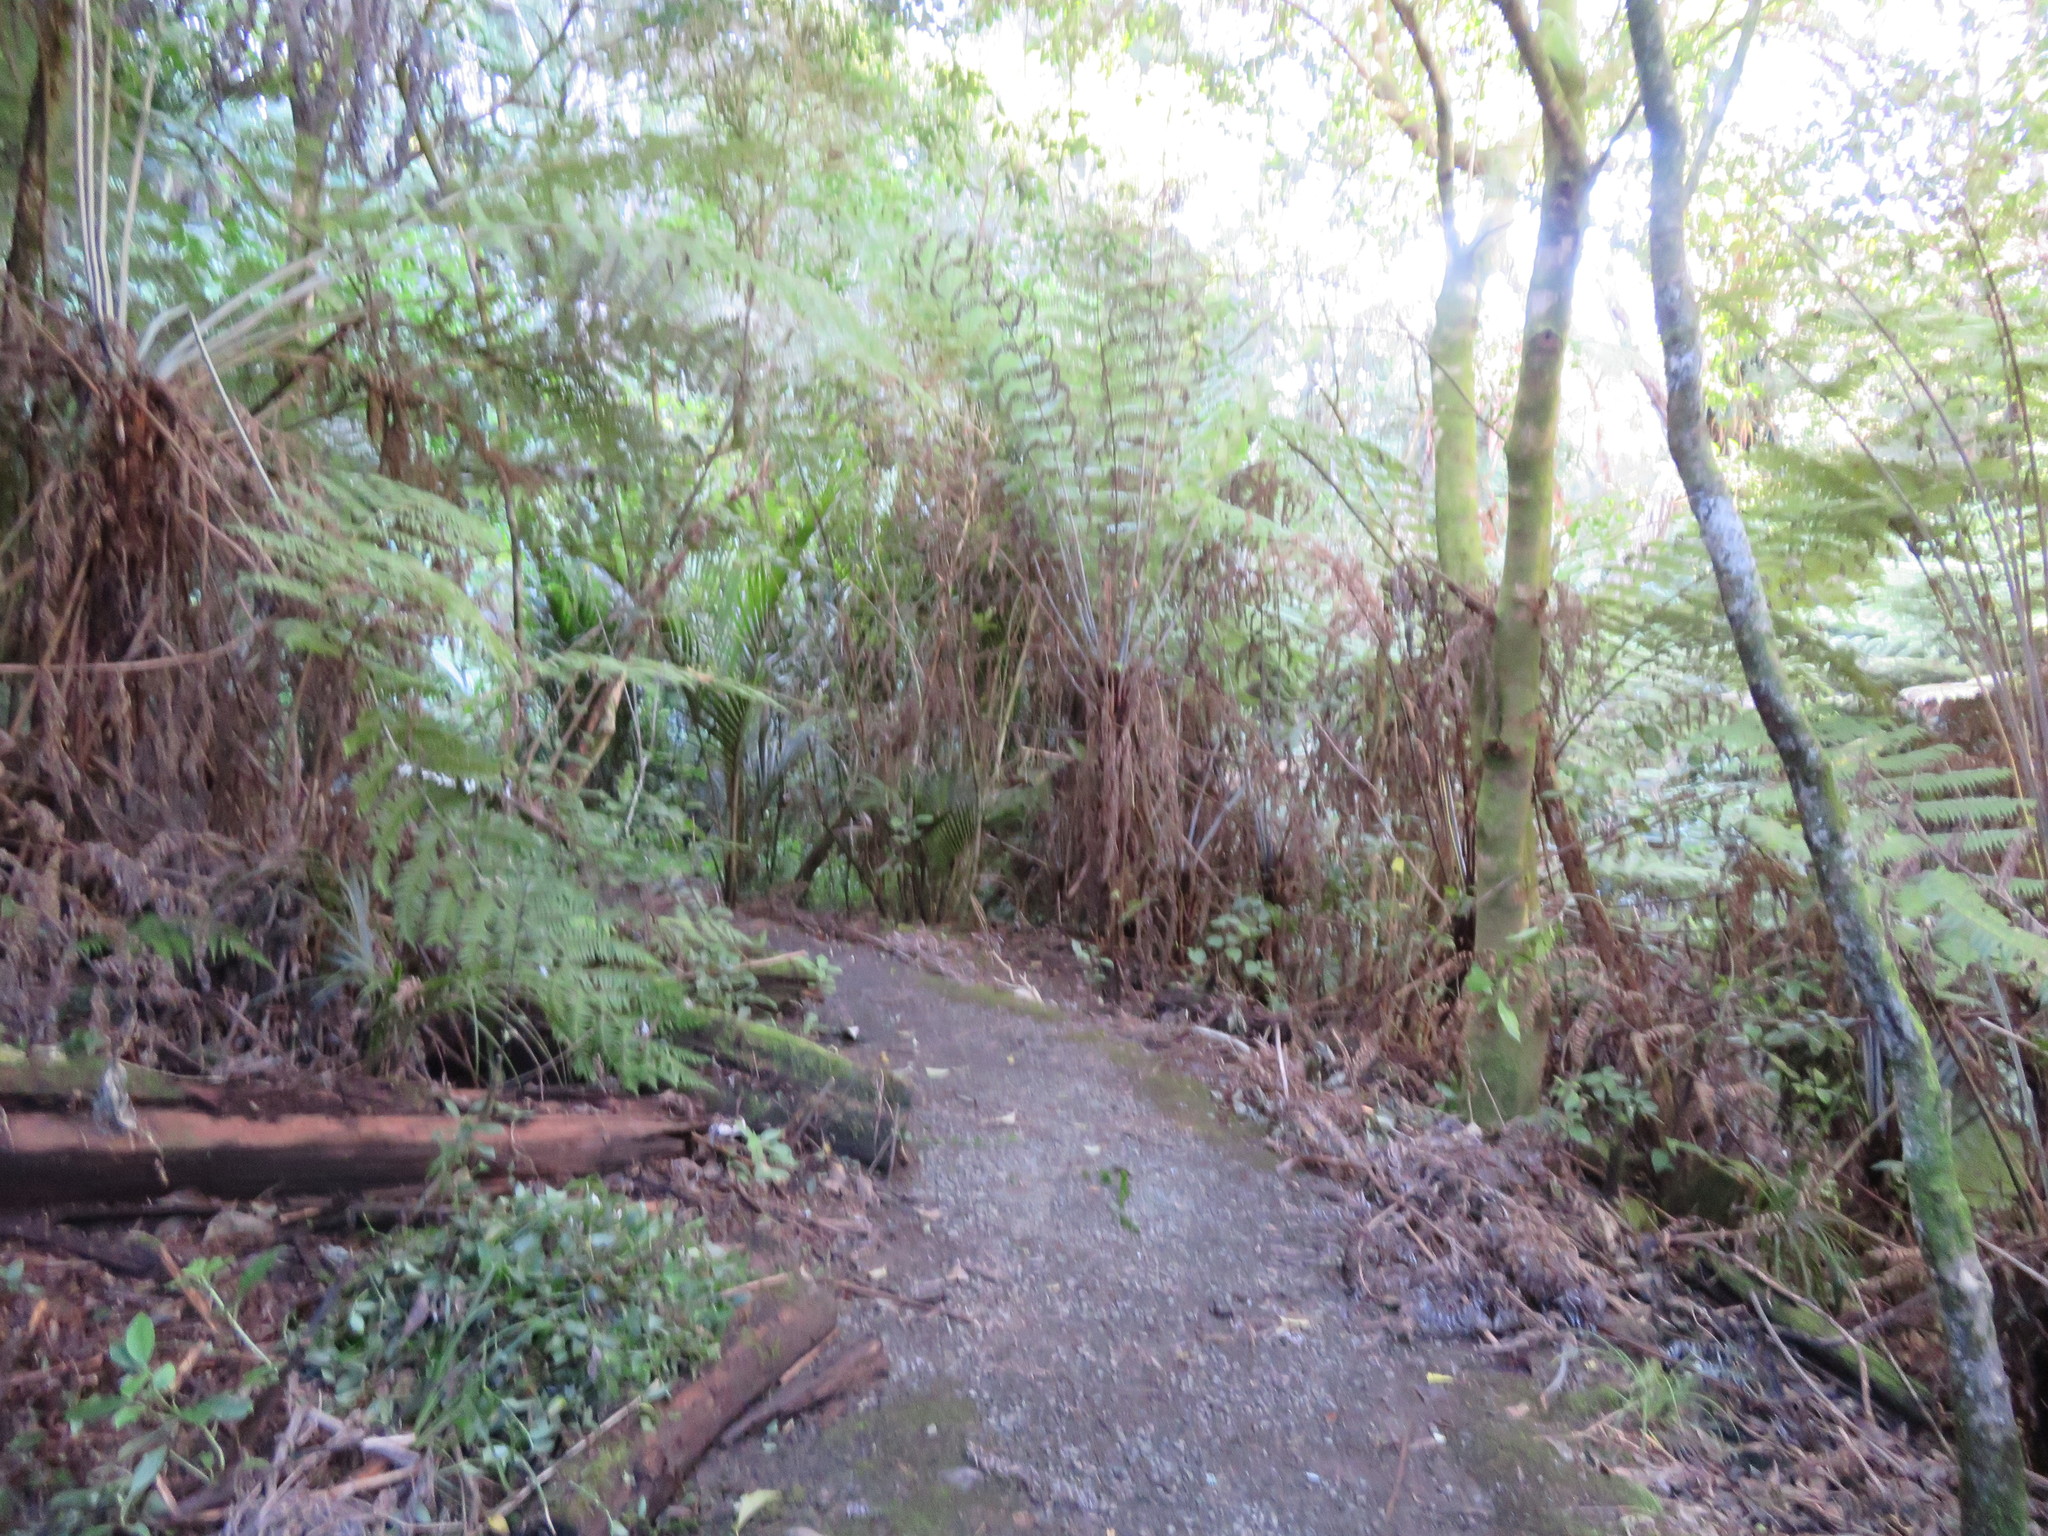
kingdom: Plantae
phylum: Tracheophyta
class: Liliopsida
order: Commelinales
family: Commelinaceae
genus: Tradescantia
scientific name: Tradescantia fluminensis
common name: Wandering-jew
